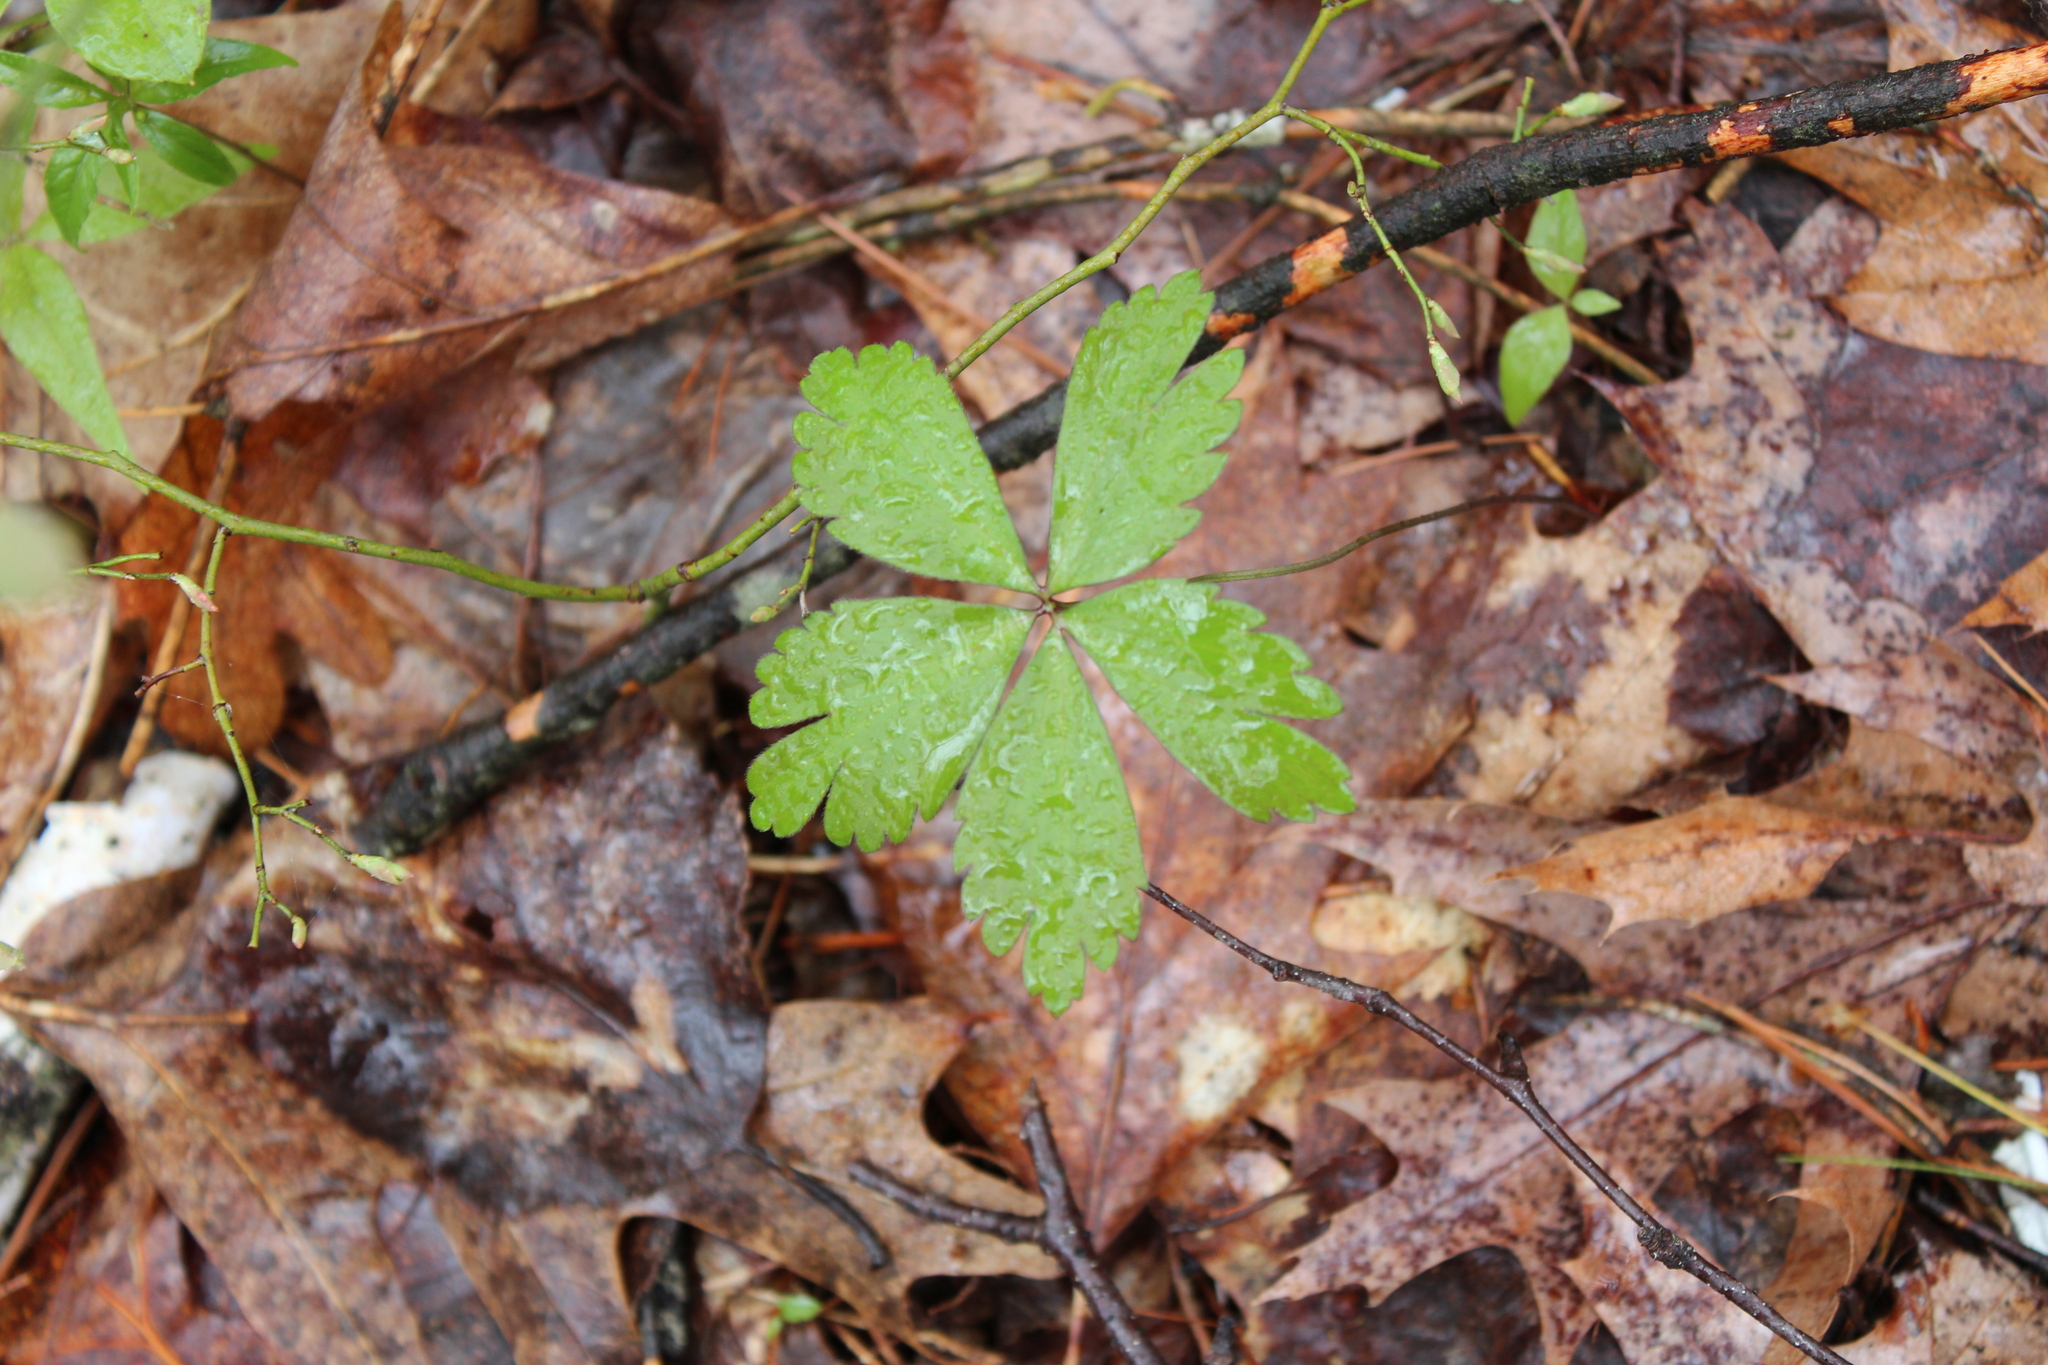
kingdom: Plantae
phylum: Tracheophyta
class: Magnoliopsida
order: Ranunculales
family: Ranunculaceae
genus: Anemone
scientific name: Anemone quinquefolia
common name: Wood anemone
